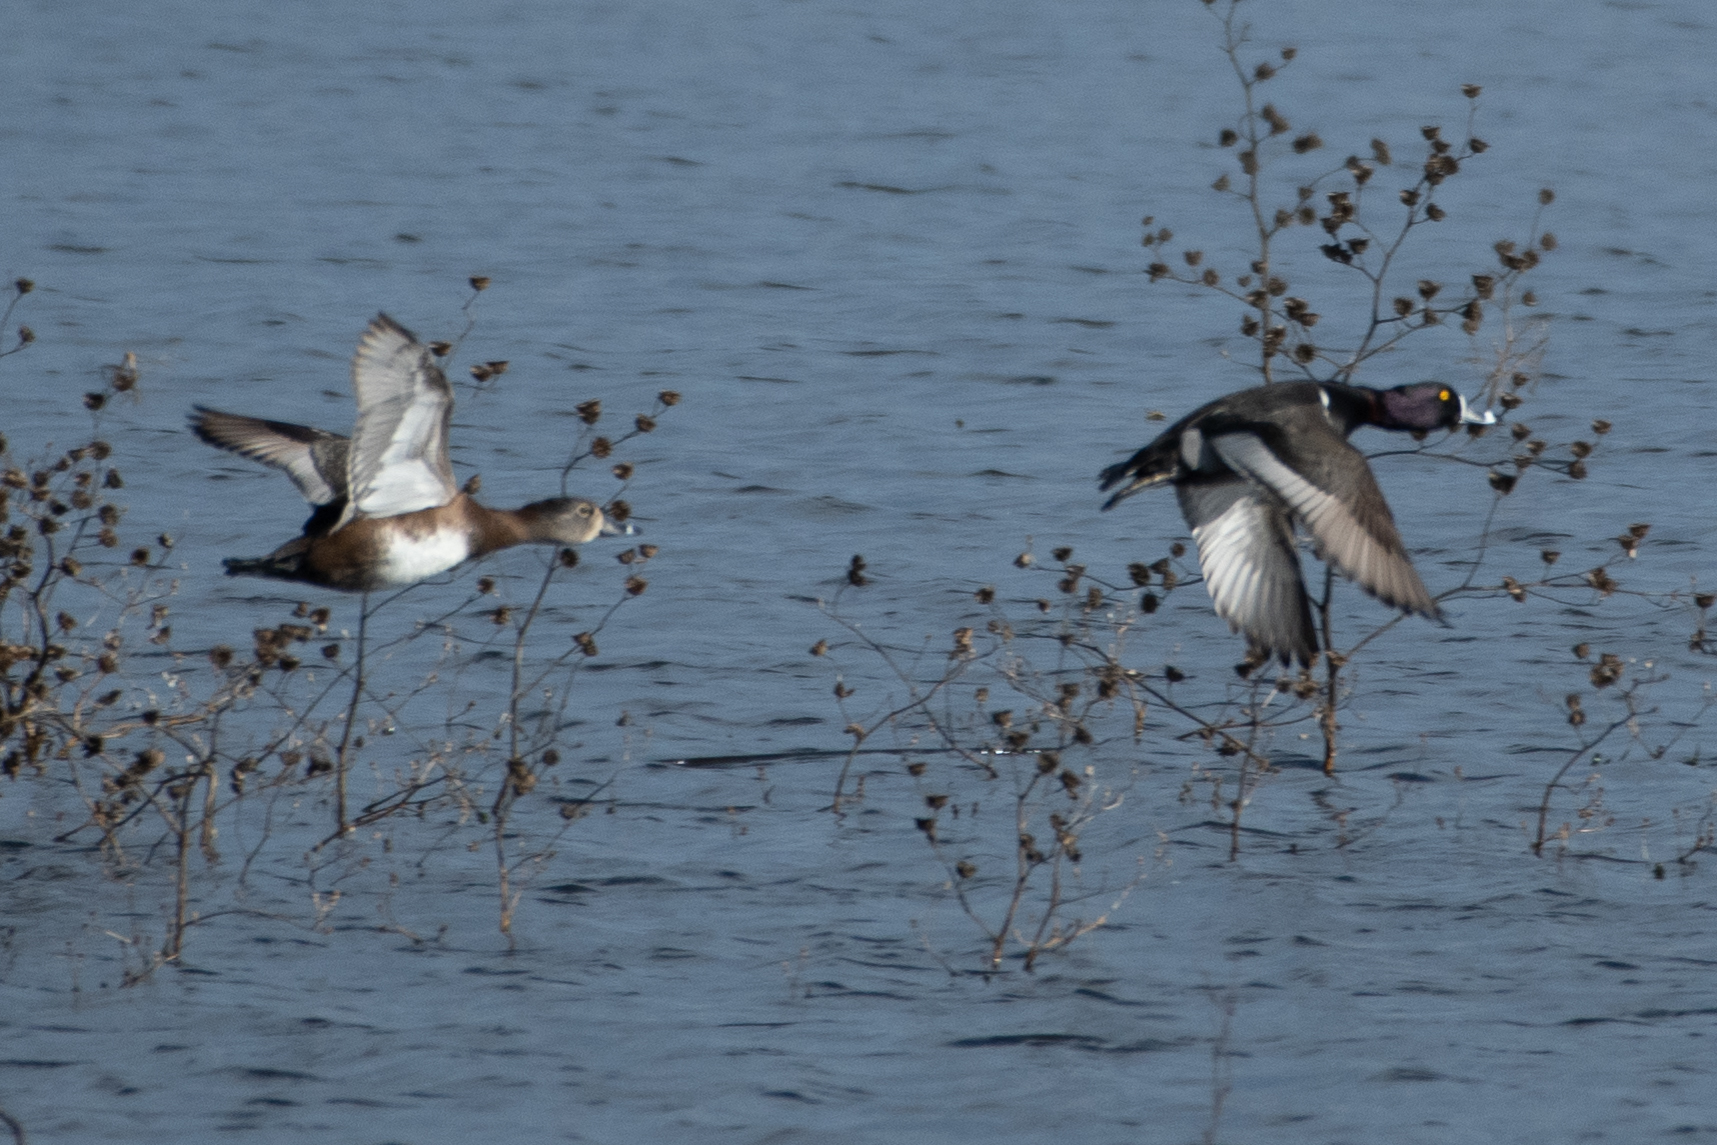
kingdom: Animalia
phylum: Chordata
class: Aves
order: Anseriformes
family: Anatidae
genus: Aythya
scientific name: Aythya collaris
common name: Ring-necked duck
